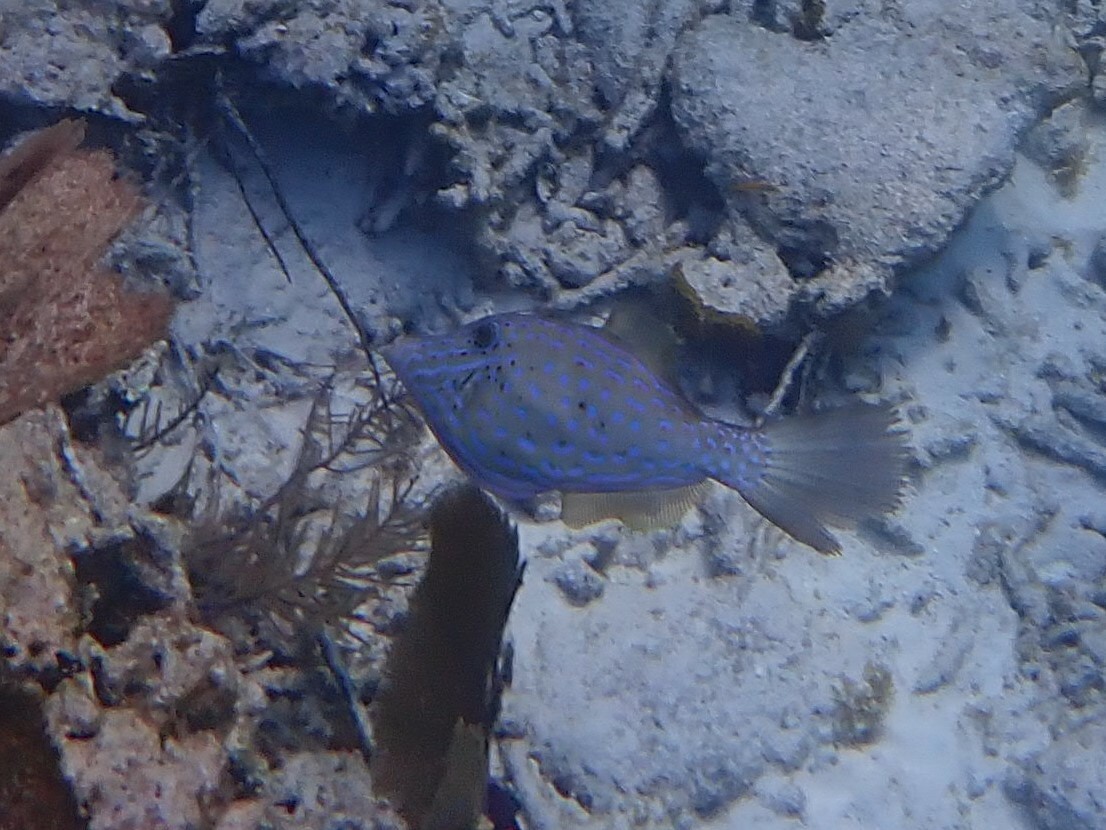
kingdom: Animalia
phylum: Chordata
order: Tetraodontiformes
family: Monacanthidae
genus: Aluterus
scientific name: Aluterus scriptus
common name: Scribbled leatherjacket filefish
